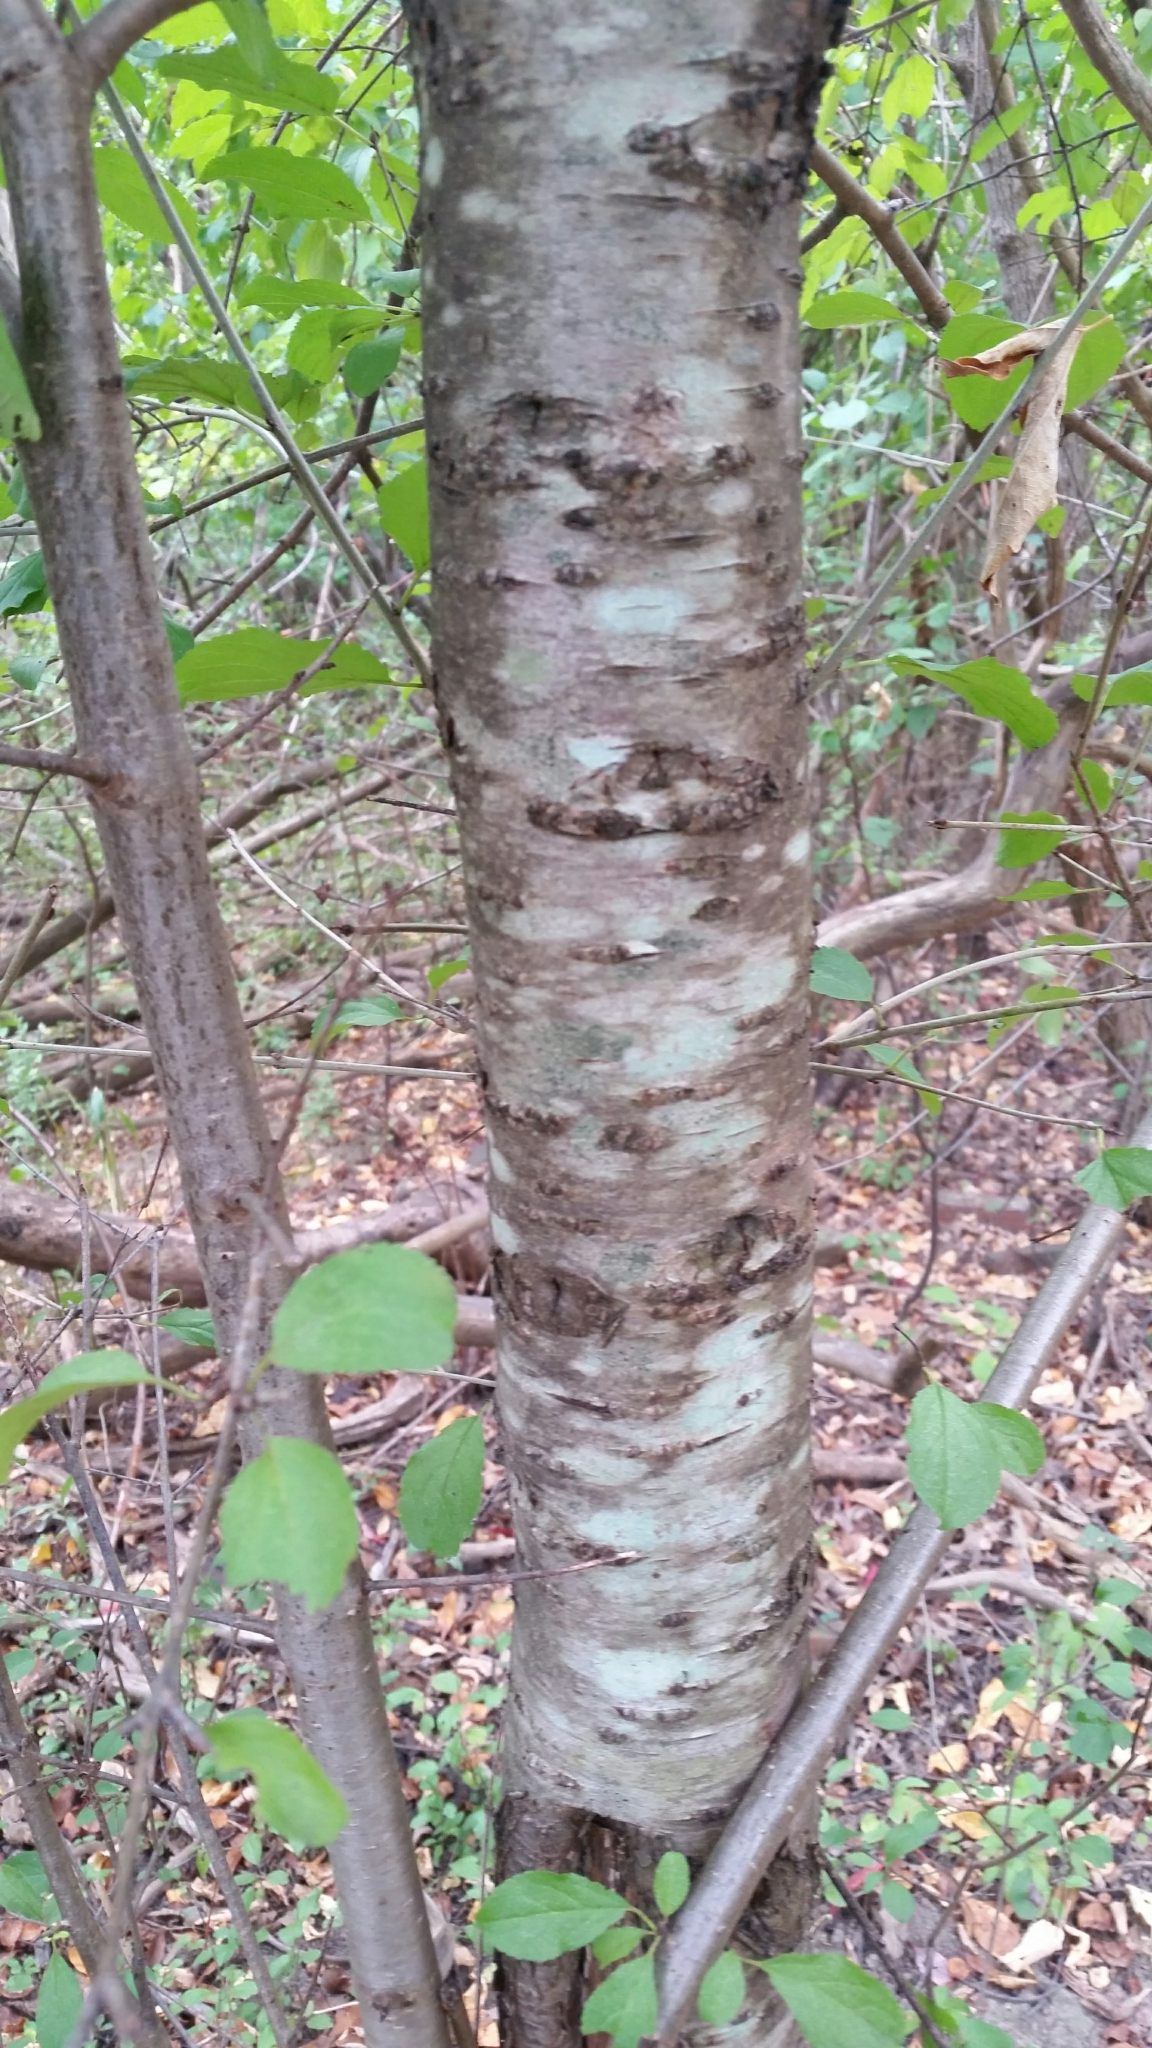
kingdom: Plantae
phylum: Tracheophyta
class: Magnoliopsida
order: Rosales
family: Rhamnaceae
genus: Rhamnus
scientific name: Rhamnus cathartica
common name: Common buckthorn
